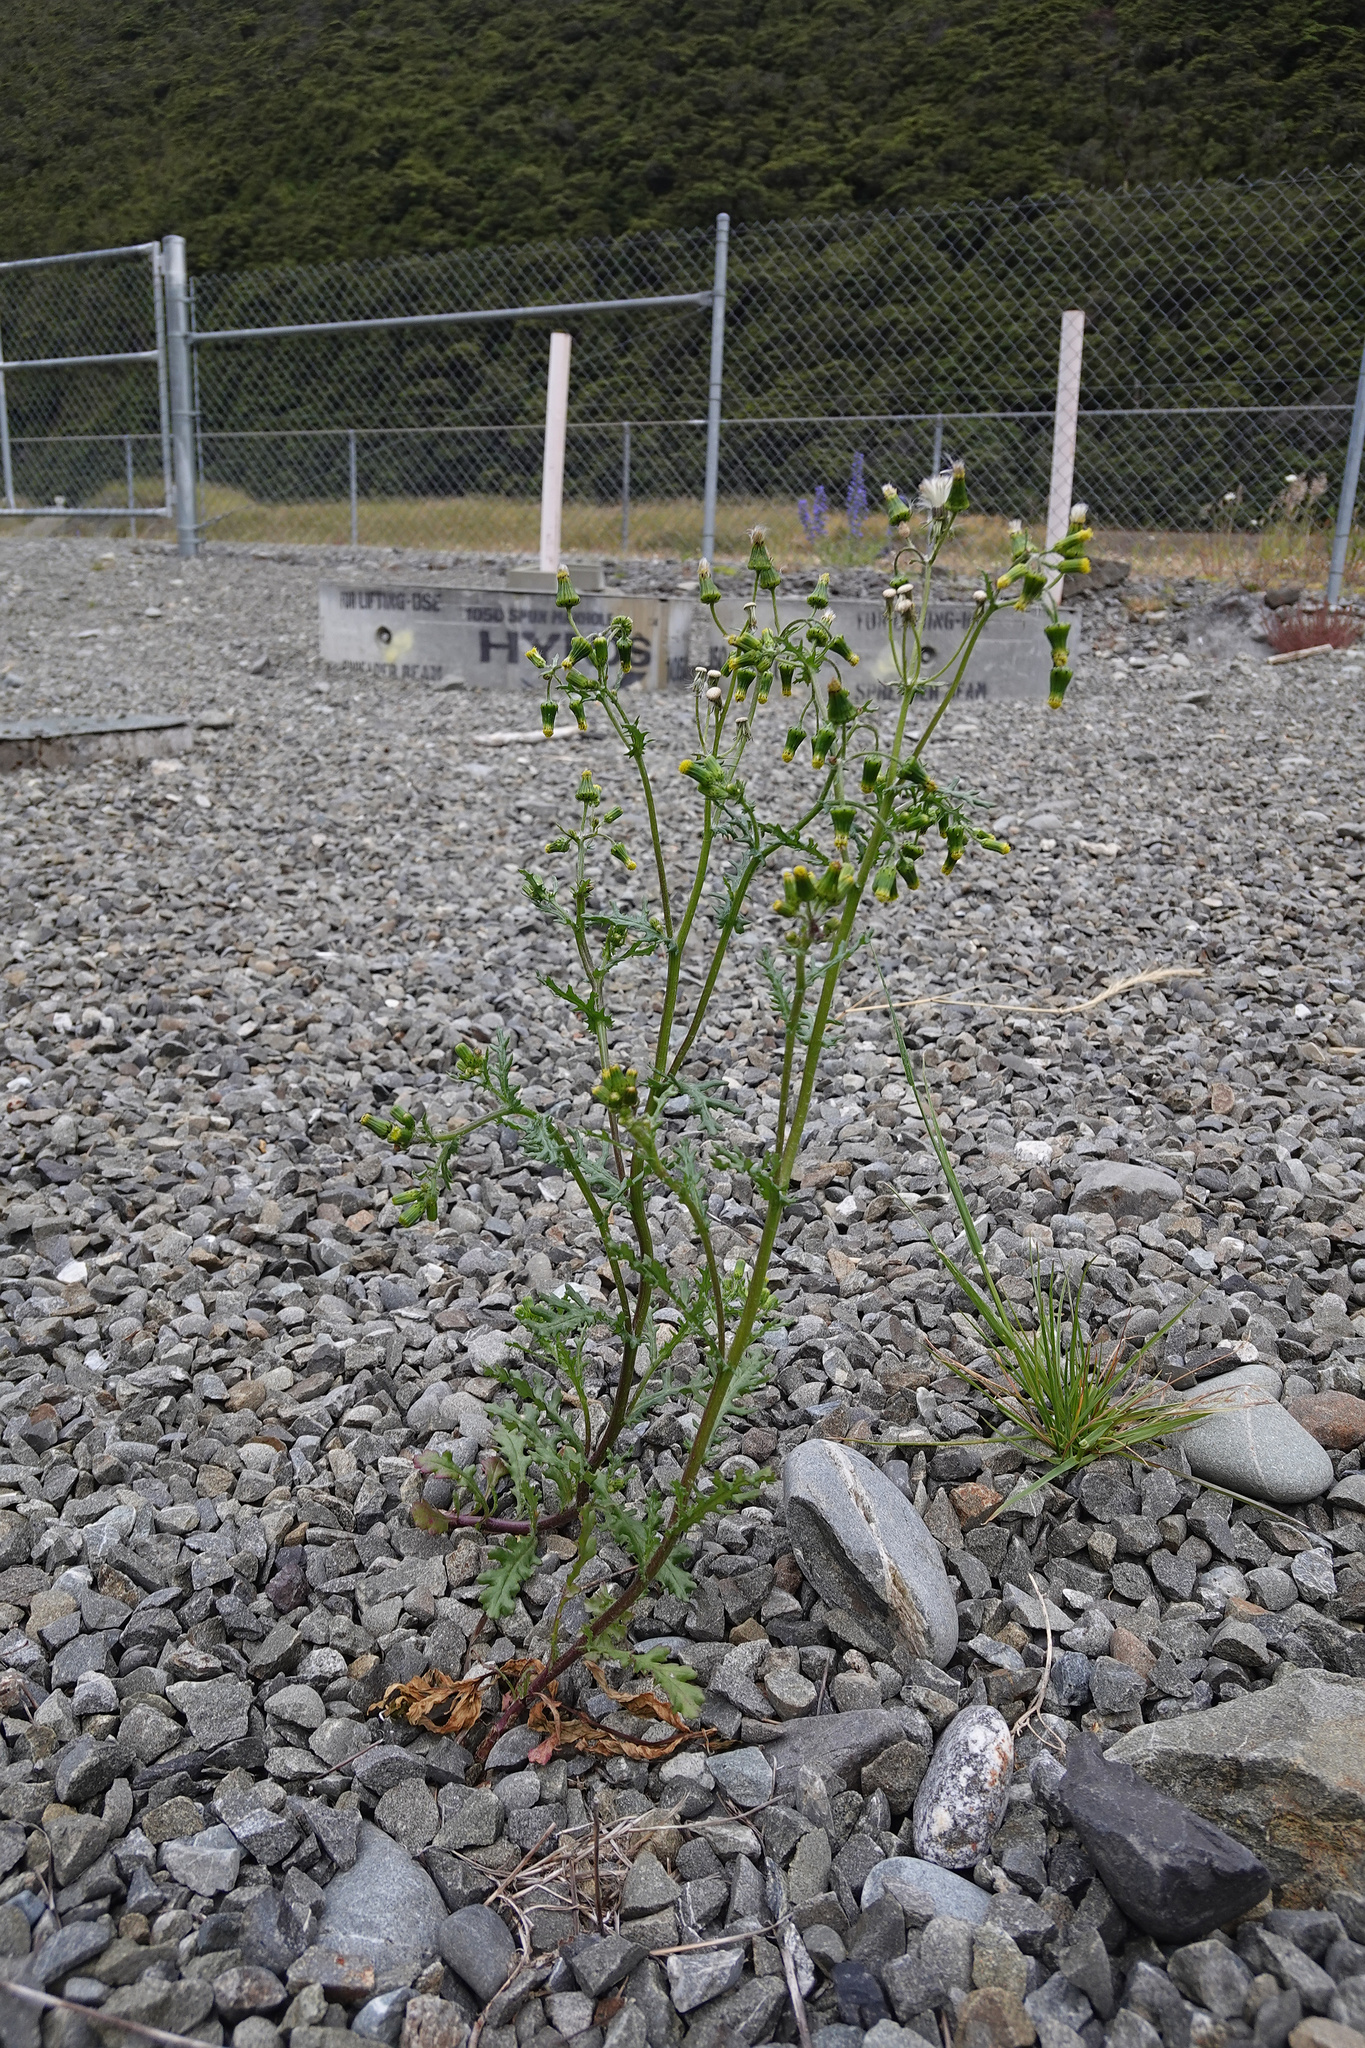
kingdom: Plantae
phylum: Tracheophyta
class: Magnoliopsida
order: Asterales
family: Asteraceae
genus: Senecio
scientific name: Senecio vulgaris
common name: Old-man-in-the-spring
